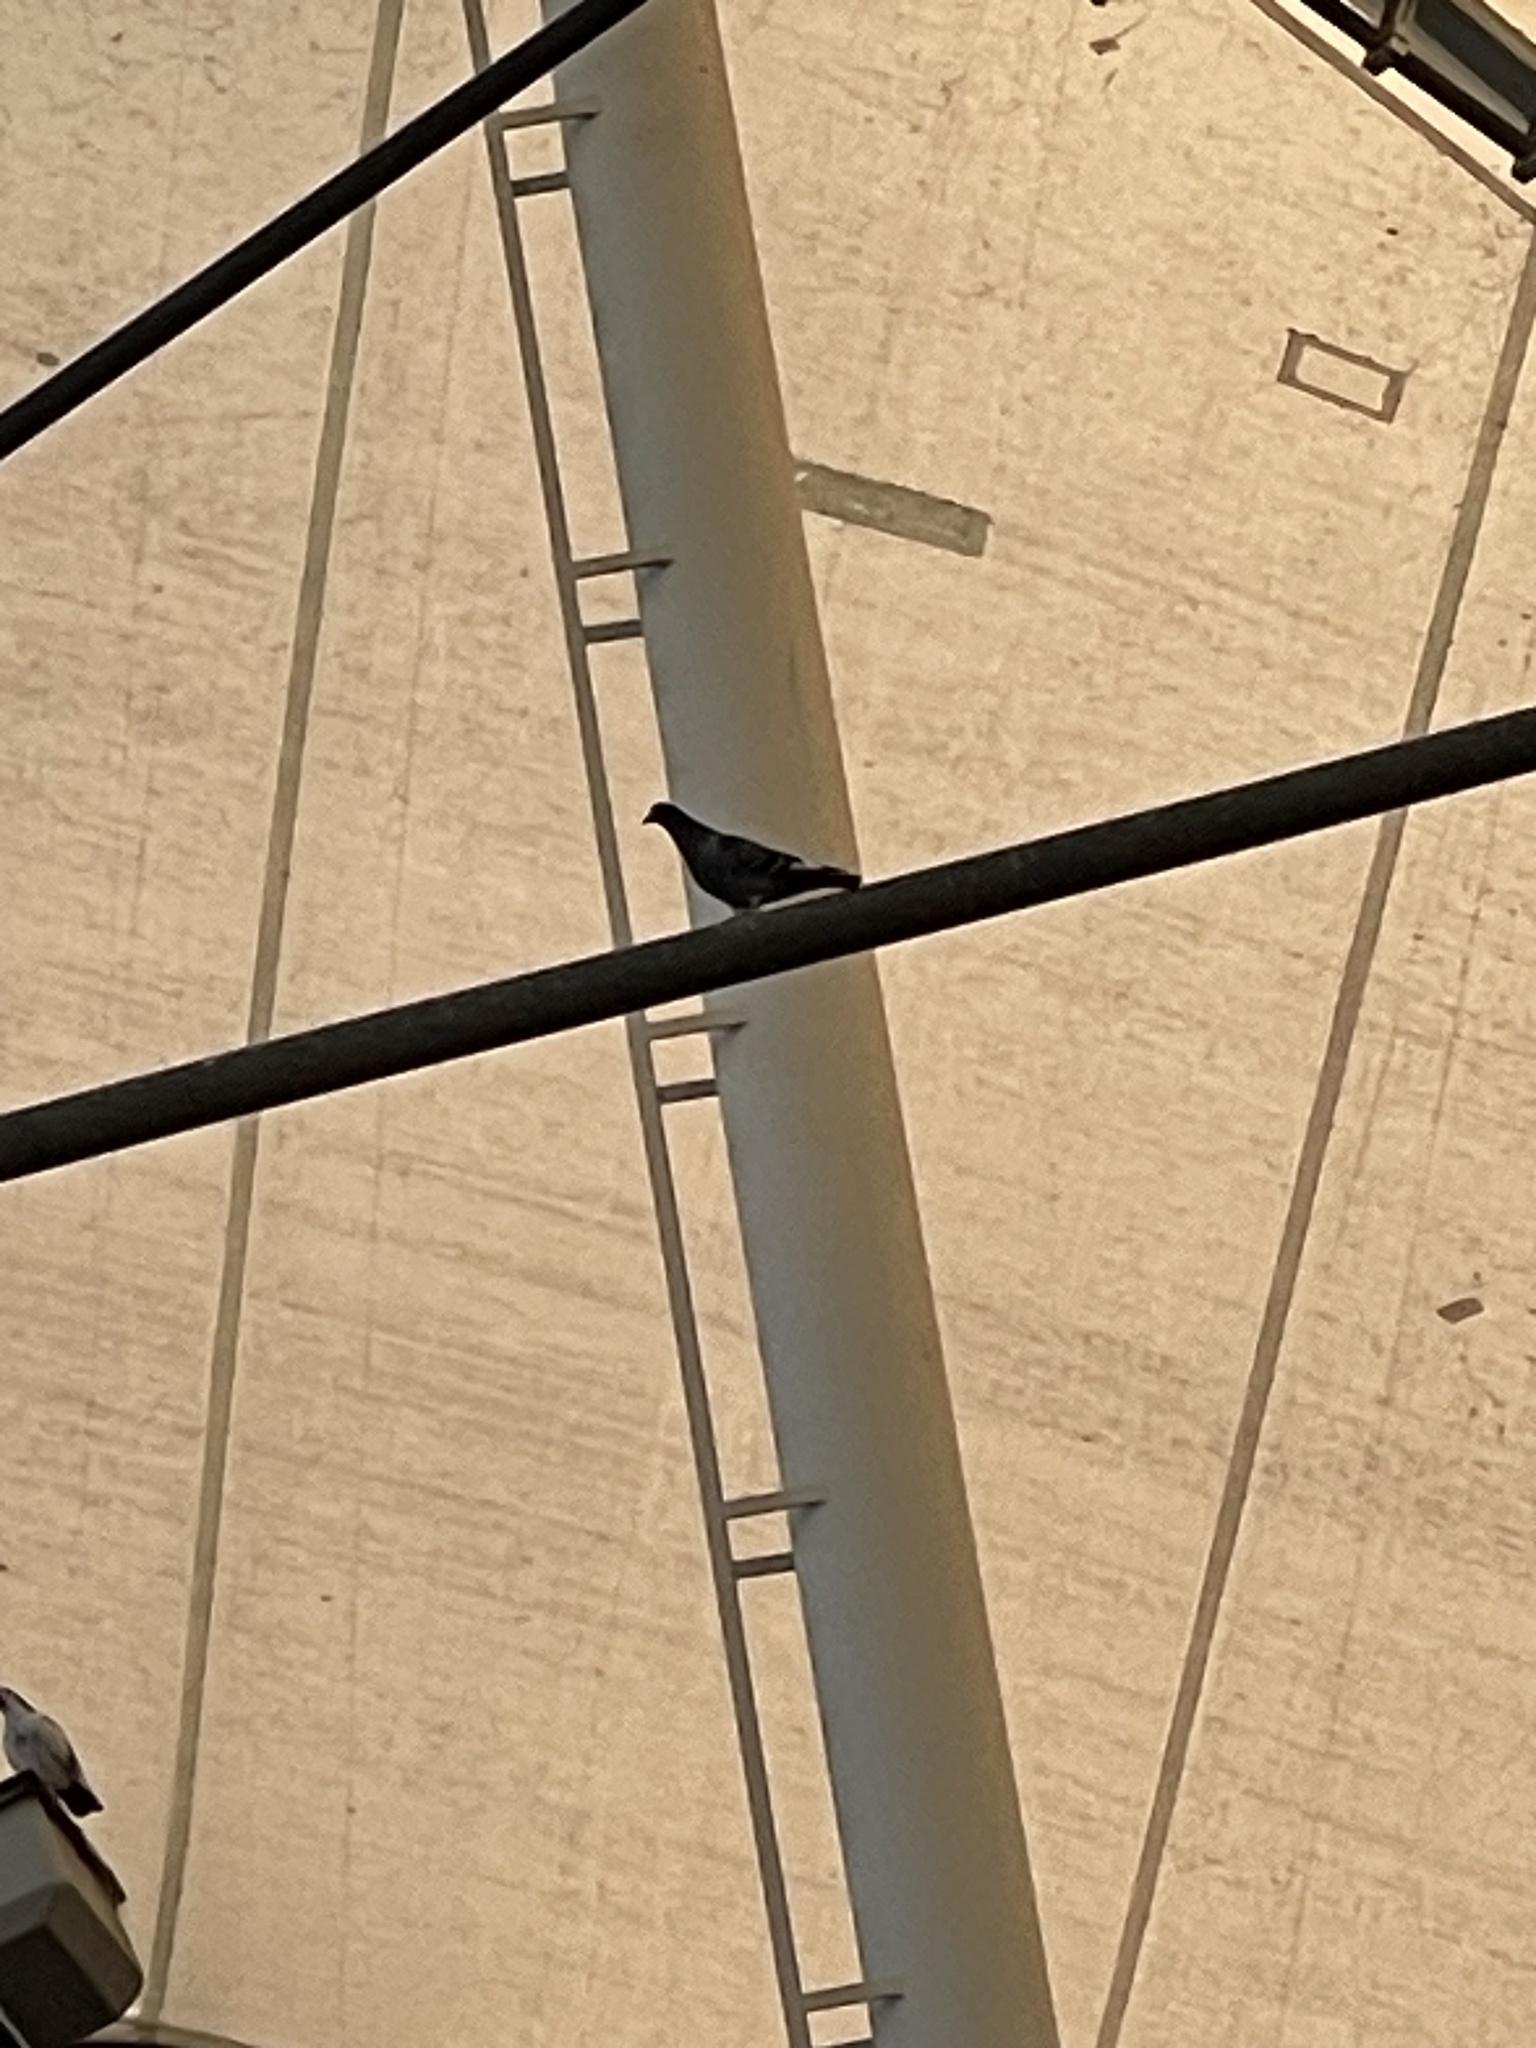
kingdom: Animalia
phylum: Chordata
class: Aves
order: Columbiformes
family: Columbidae
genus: Columba
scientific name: Columba livia
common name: Rock pigeon
